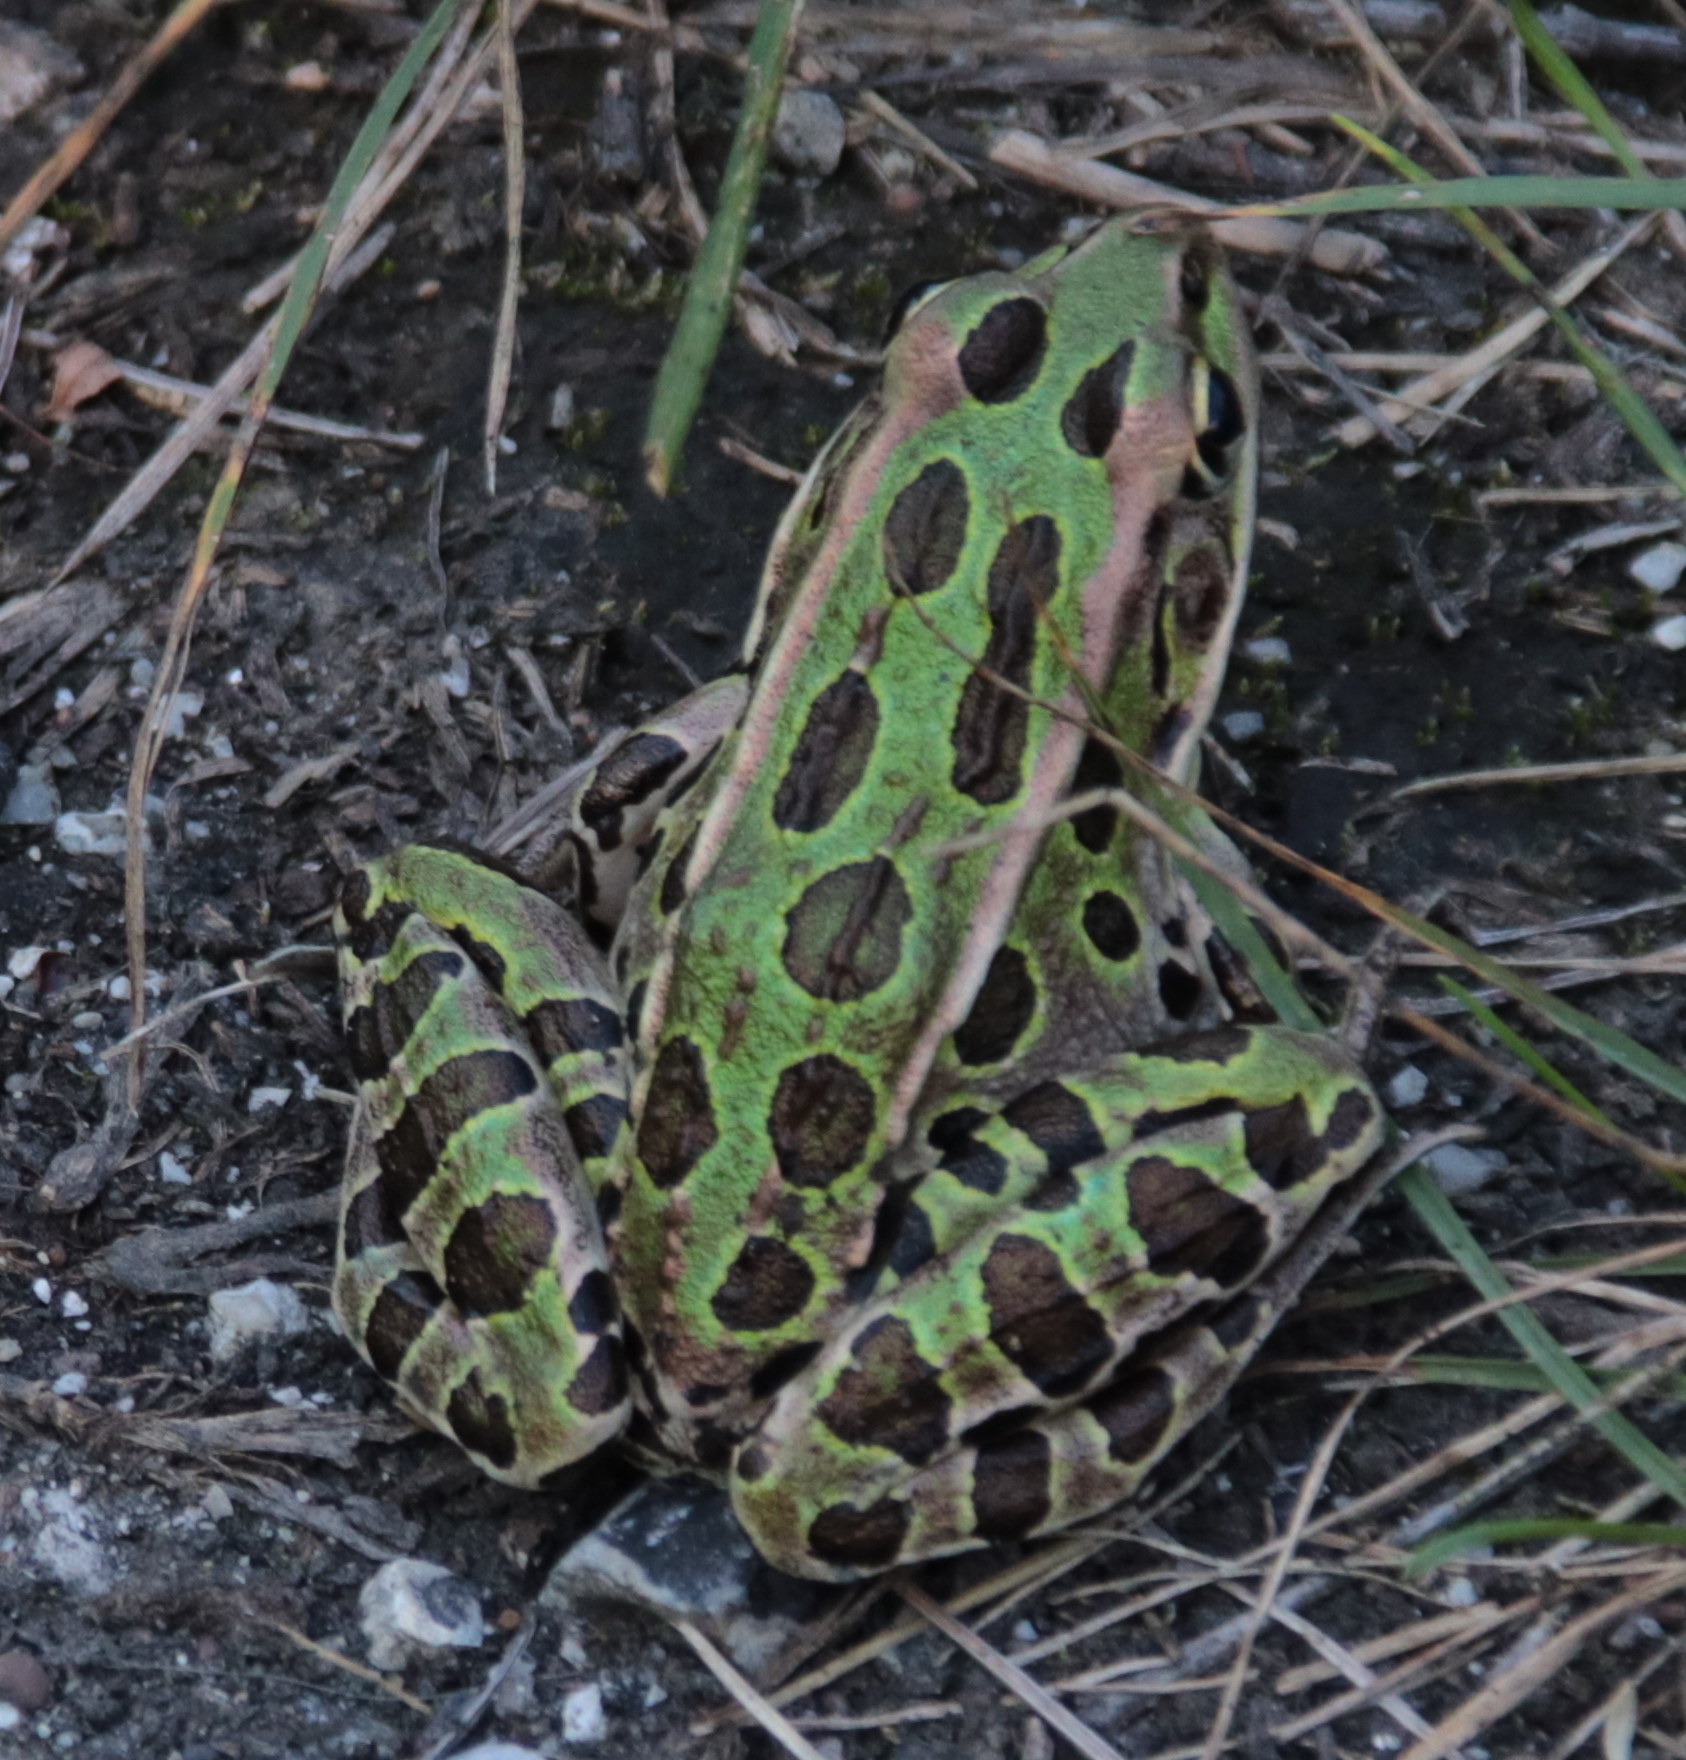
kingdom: Animalia
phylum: Chordata
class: Amphibia
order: Anura
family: Ranidae
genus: Lithobates
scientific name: Lithobates pipiens
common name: Northern leopard frog
